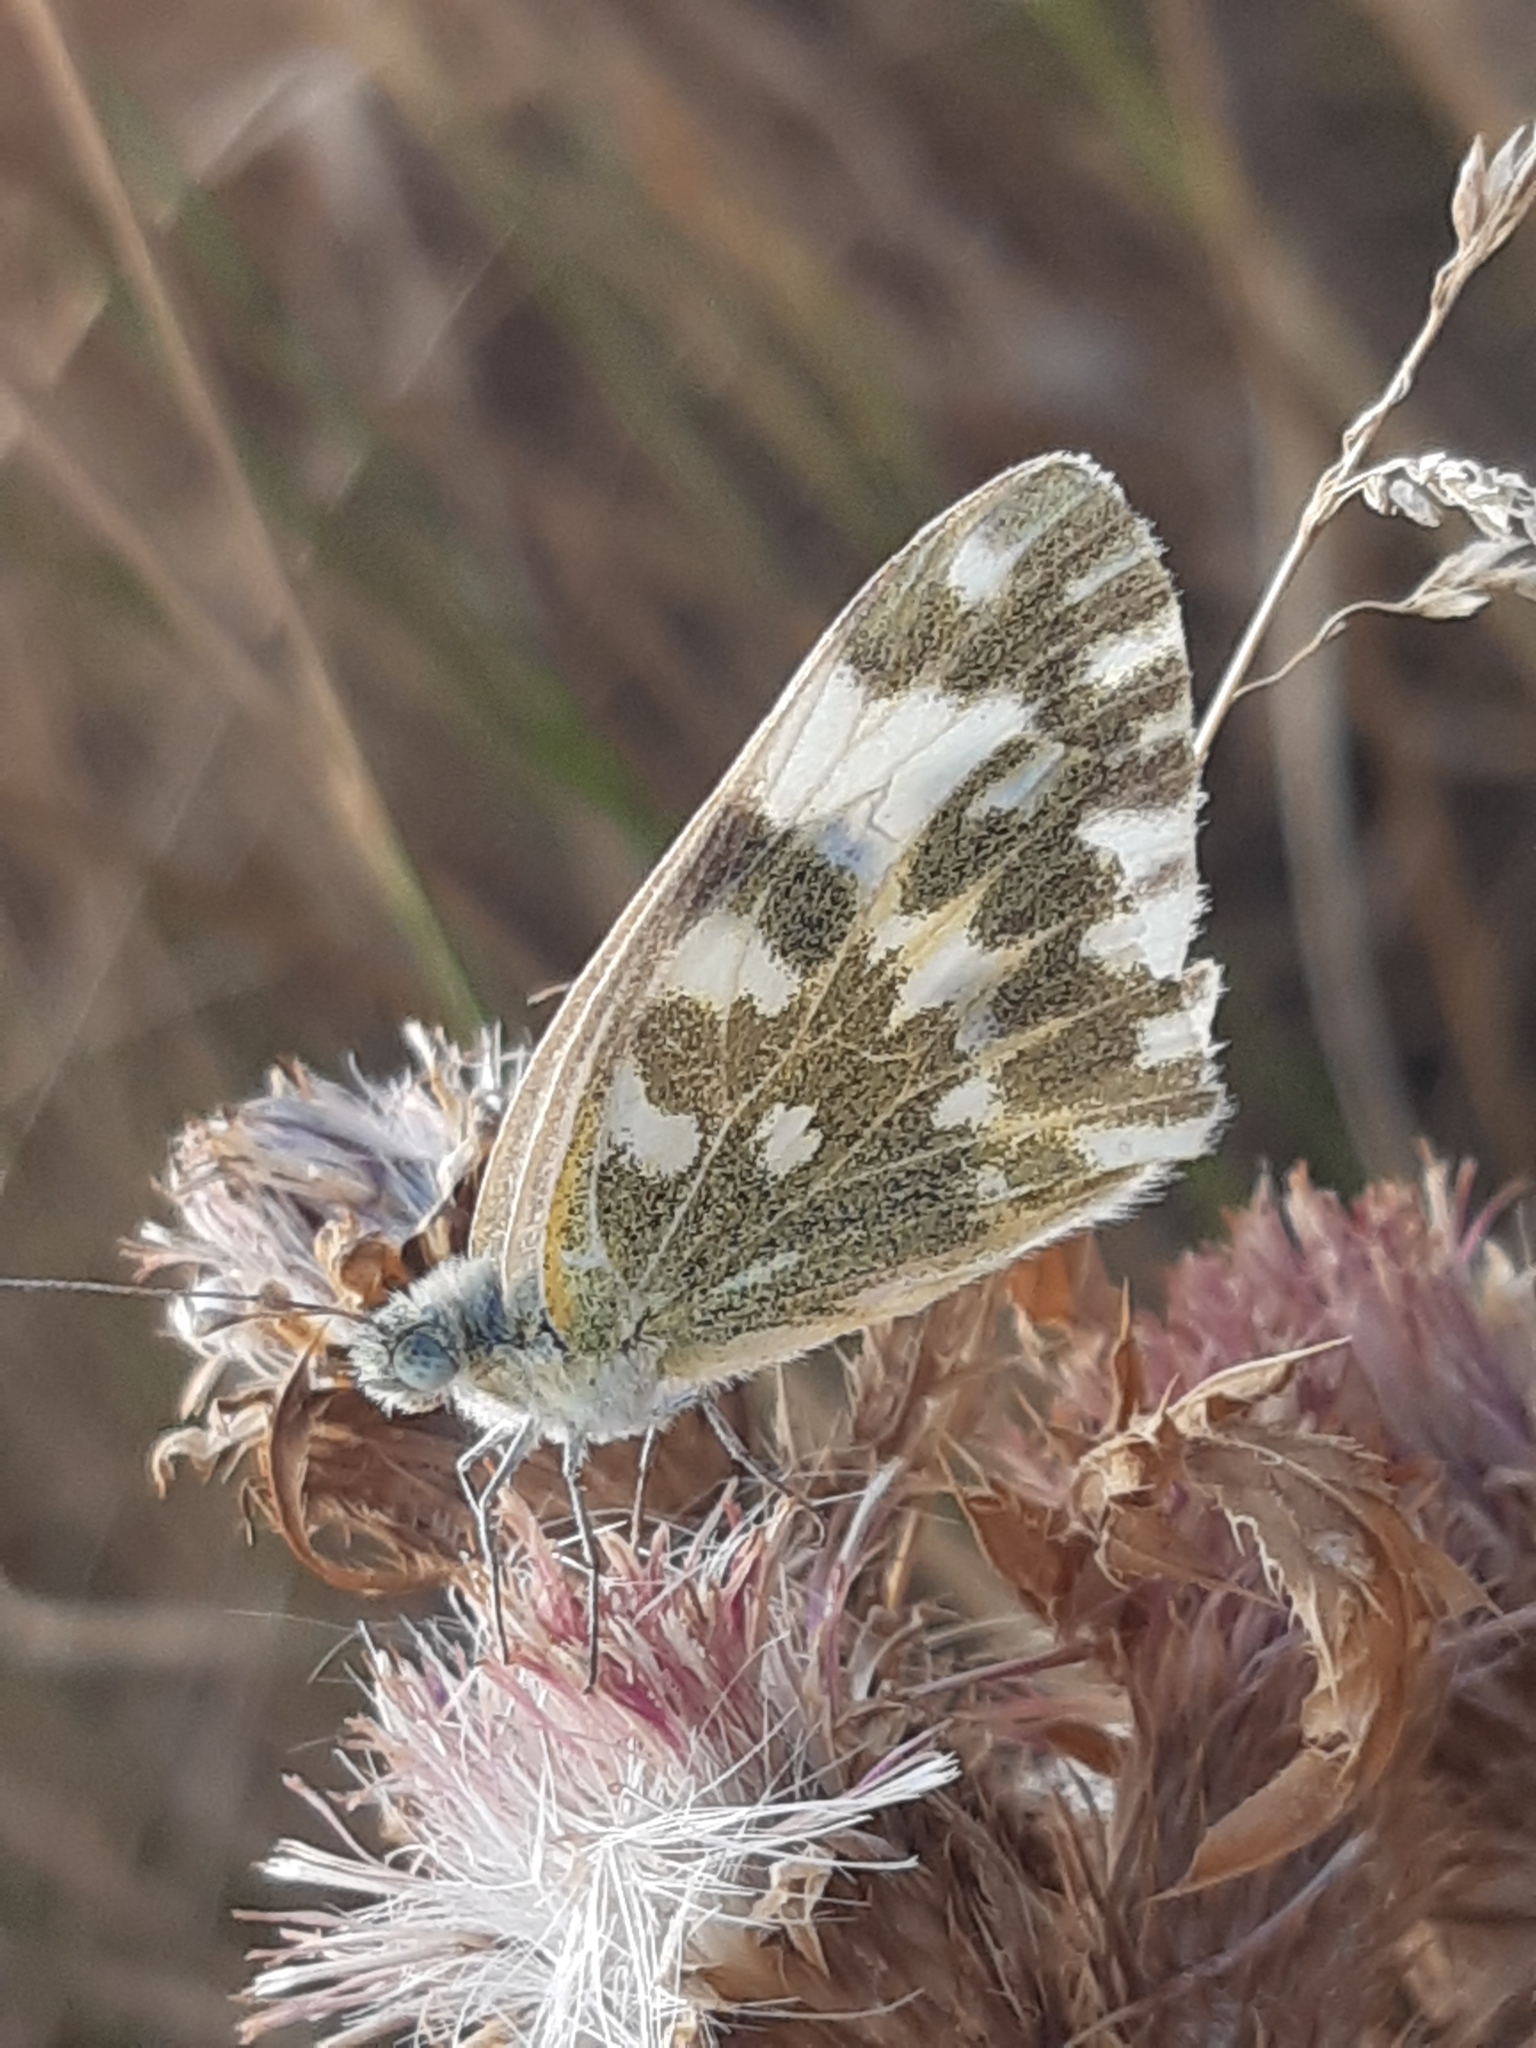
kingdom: Animalia
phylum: Arthropoda
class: Insecta
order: Lepidoptera
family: Pieridae
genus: Pontia
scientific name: Pontia edusa
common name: Eastern bath white
